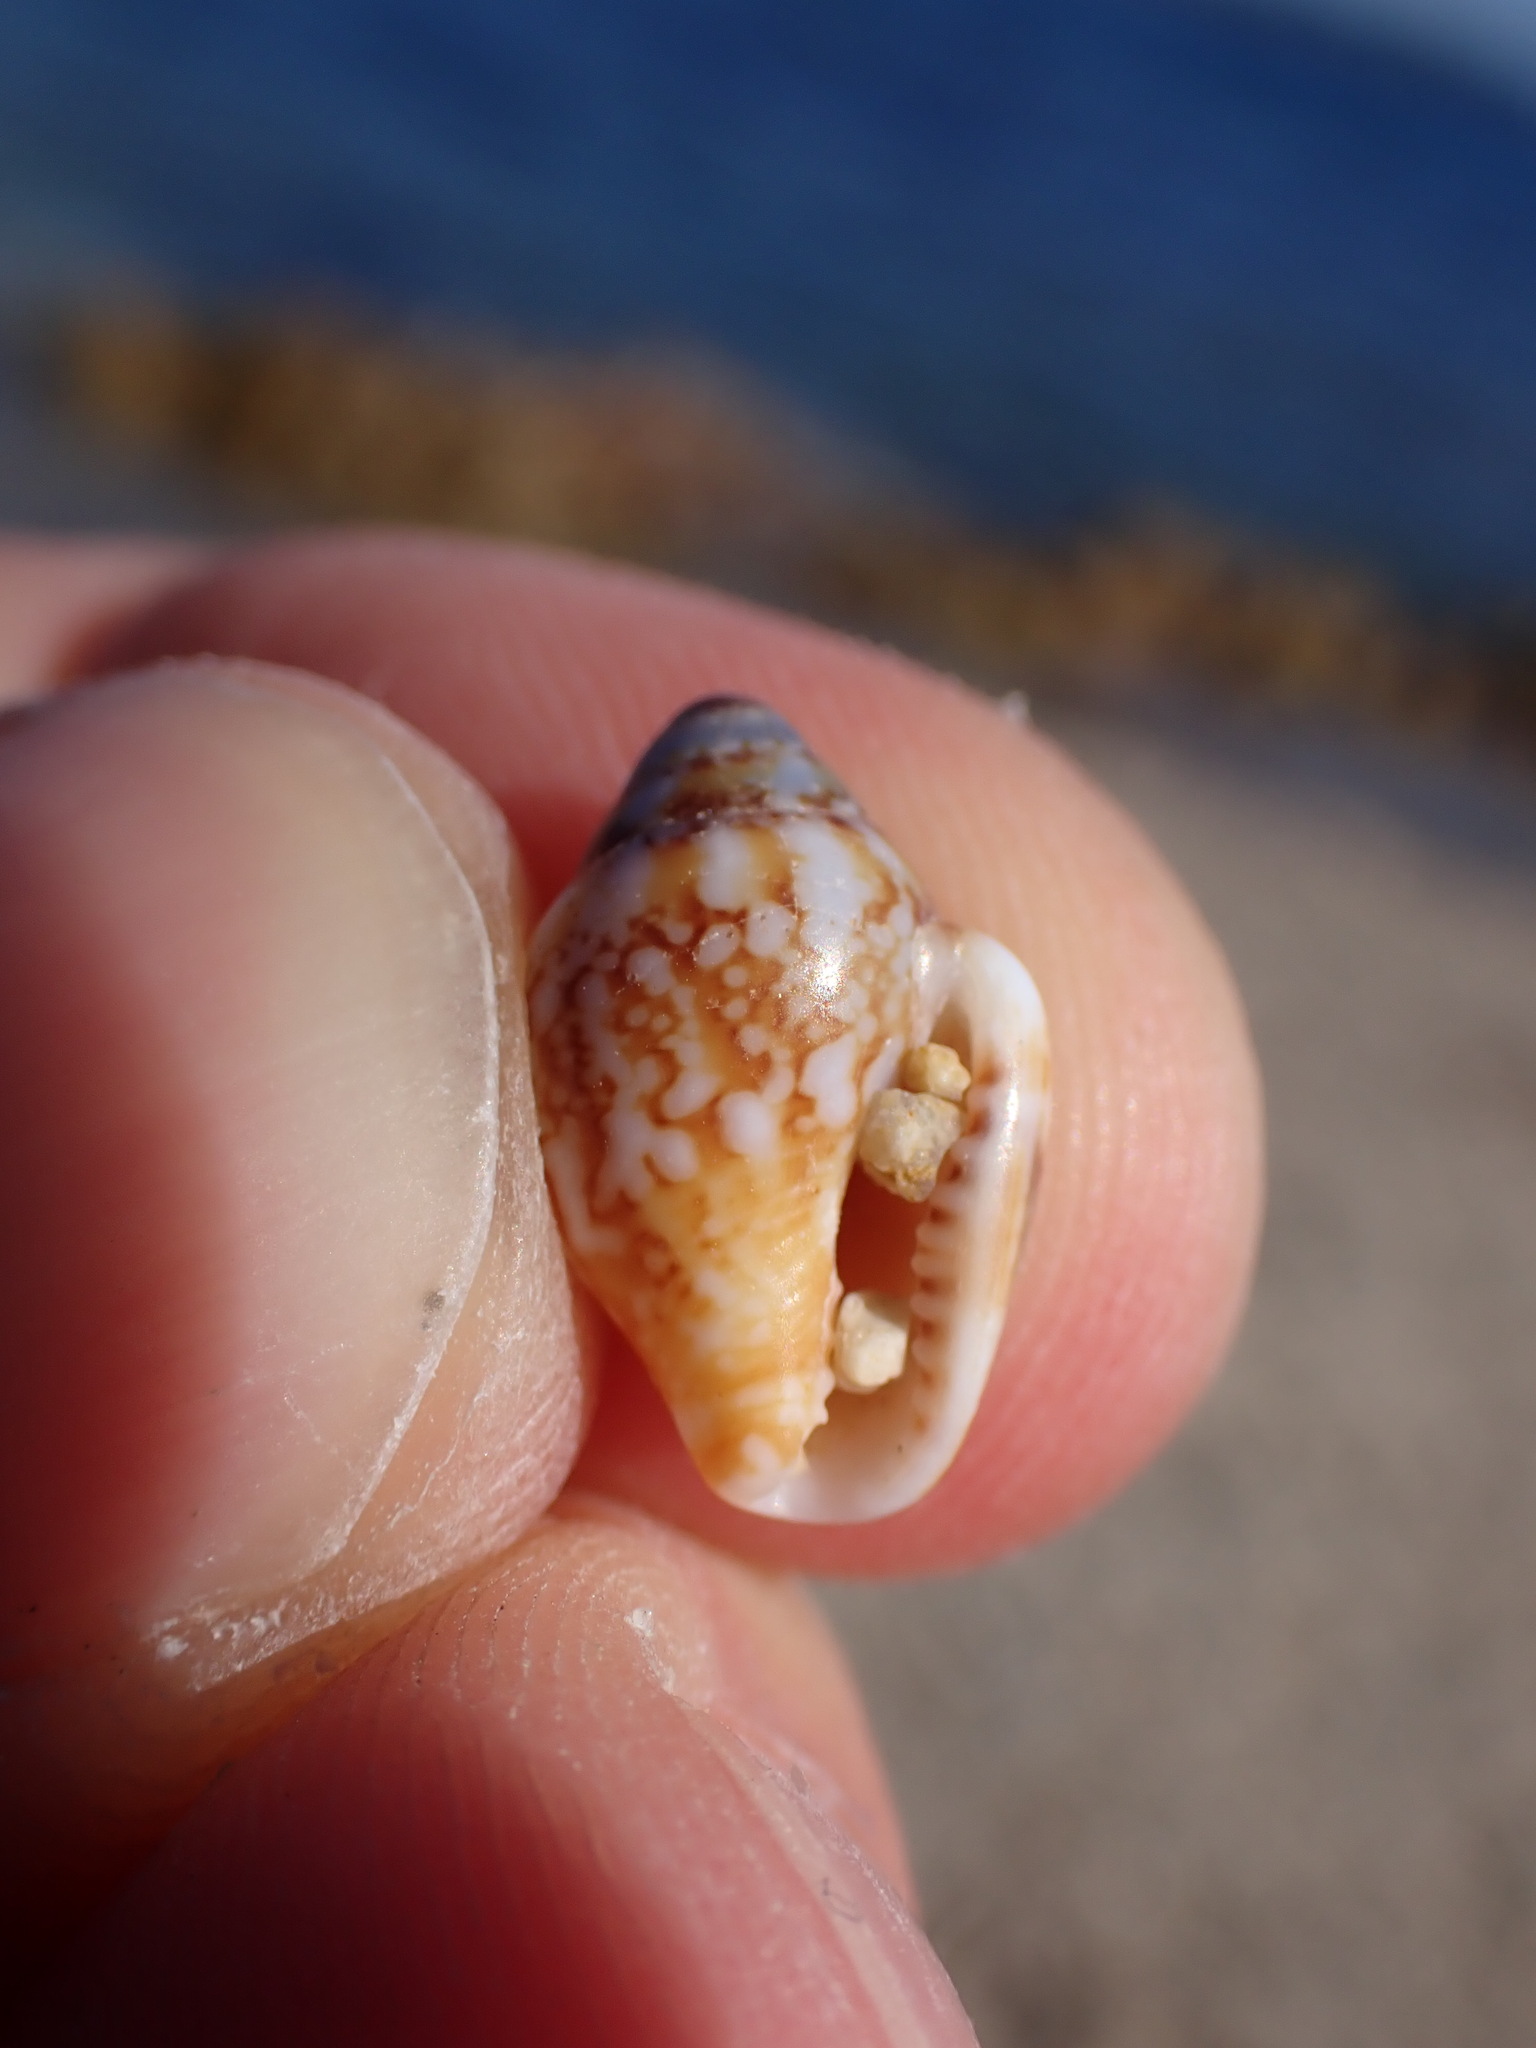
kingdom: Animalia
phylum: Mollusca
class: Gastropoda
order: Neogastropoda
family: Columbellidae
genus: Columbella
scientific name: Columbella rustica
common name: Rustic dove shell
